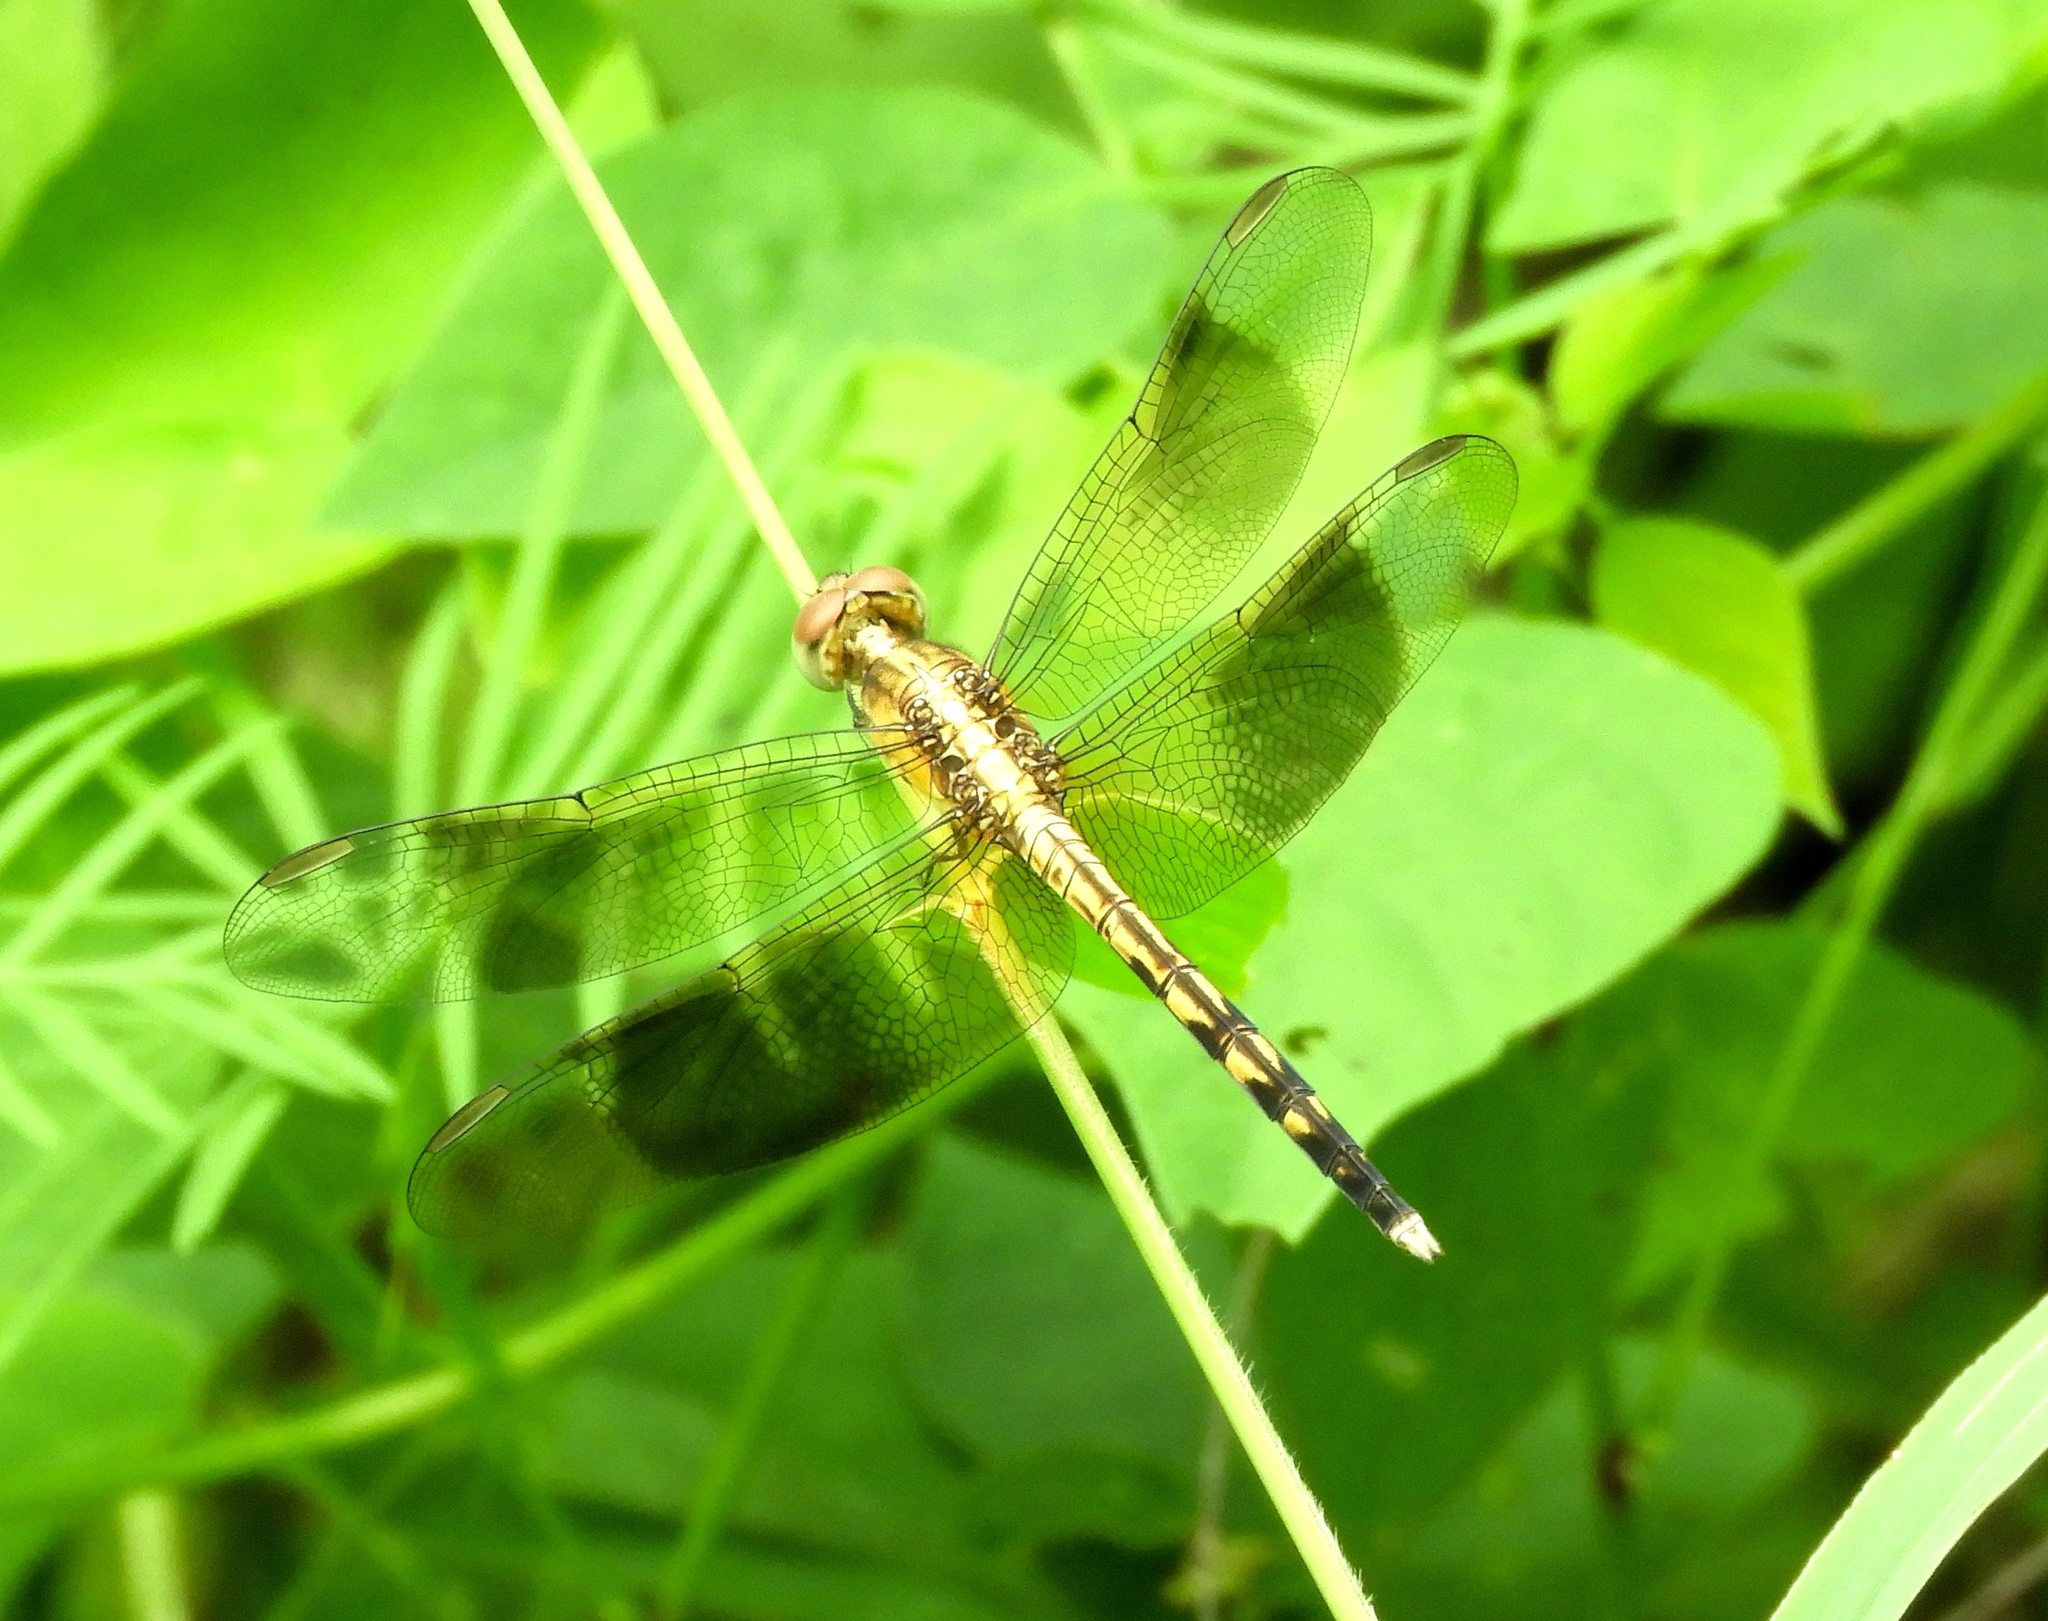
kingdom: Animalia
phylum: Arthropoda
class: Insecta
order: Odonata
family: Libellulidae
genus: Erythrodiplax
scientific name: Erythrodiplax funerea
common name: Black-winged dragonlet
